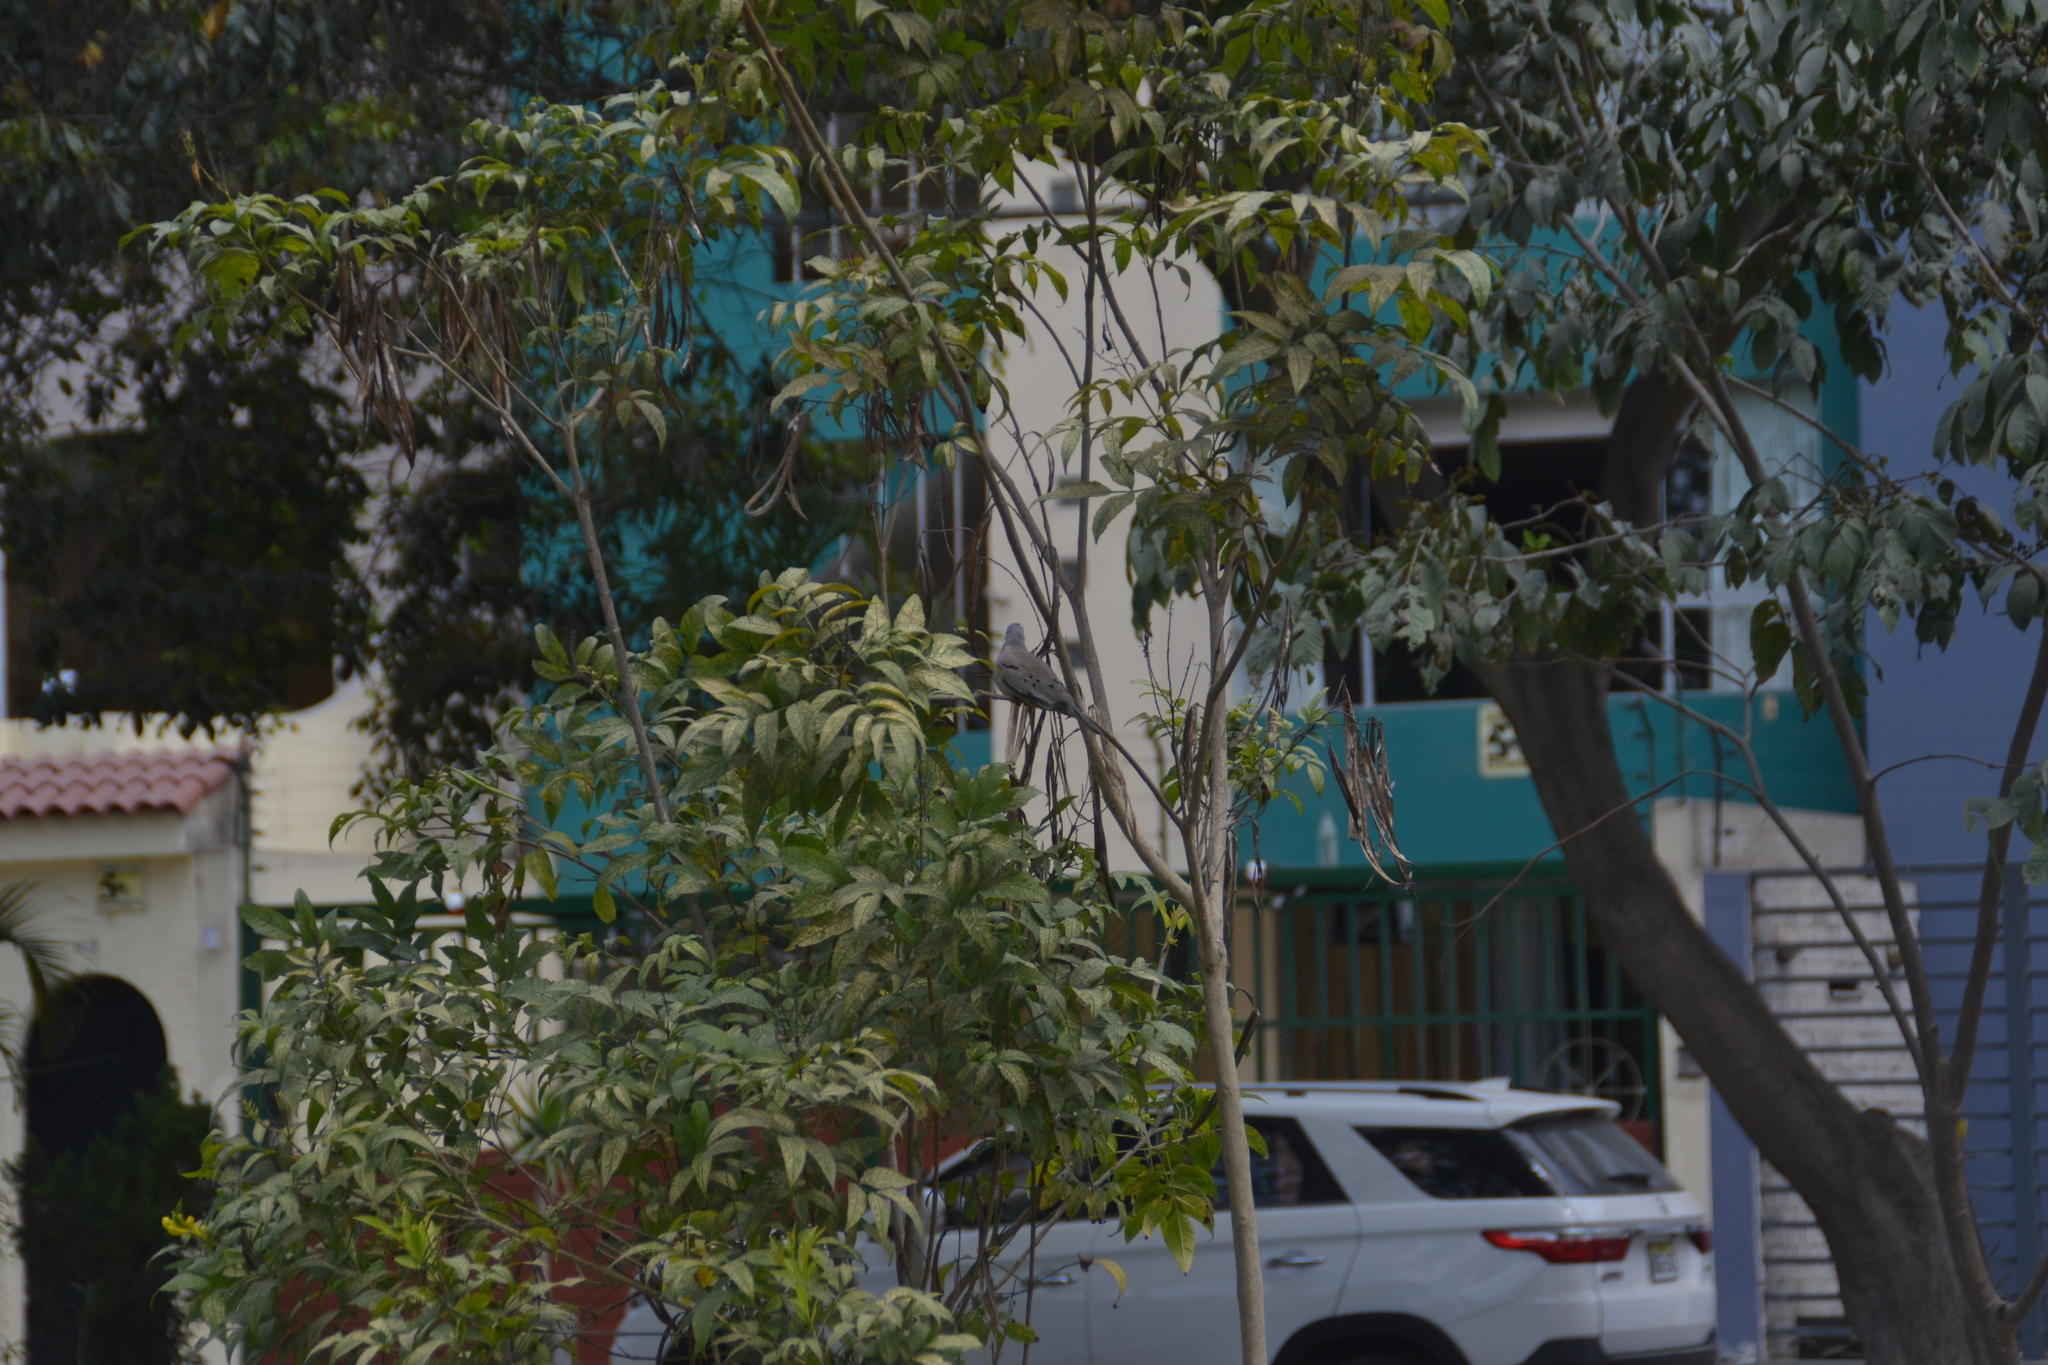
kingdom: Animalia
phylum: Chordata
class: Aves
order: Columbiformes
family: Columbidae
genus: Columbina
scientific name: Columbina cruziana
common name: Croaking ground dove
